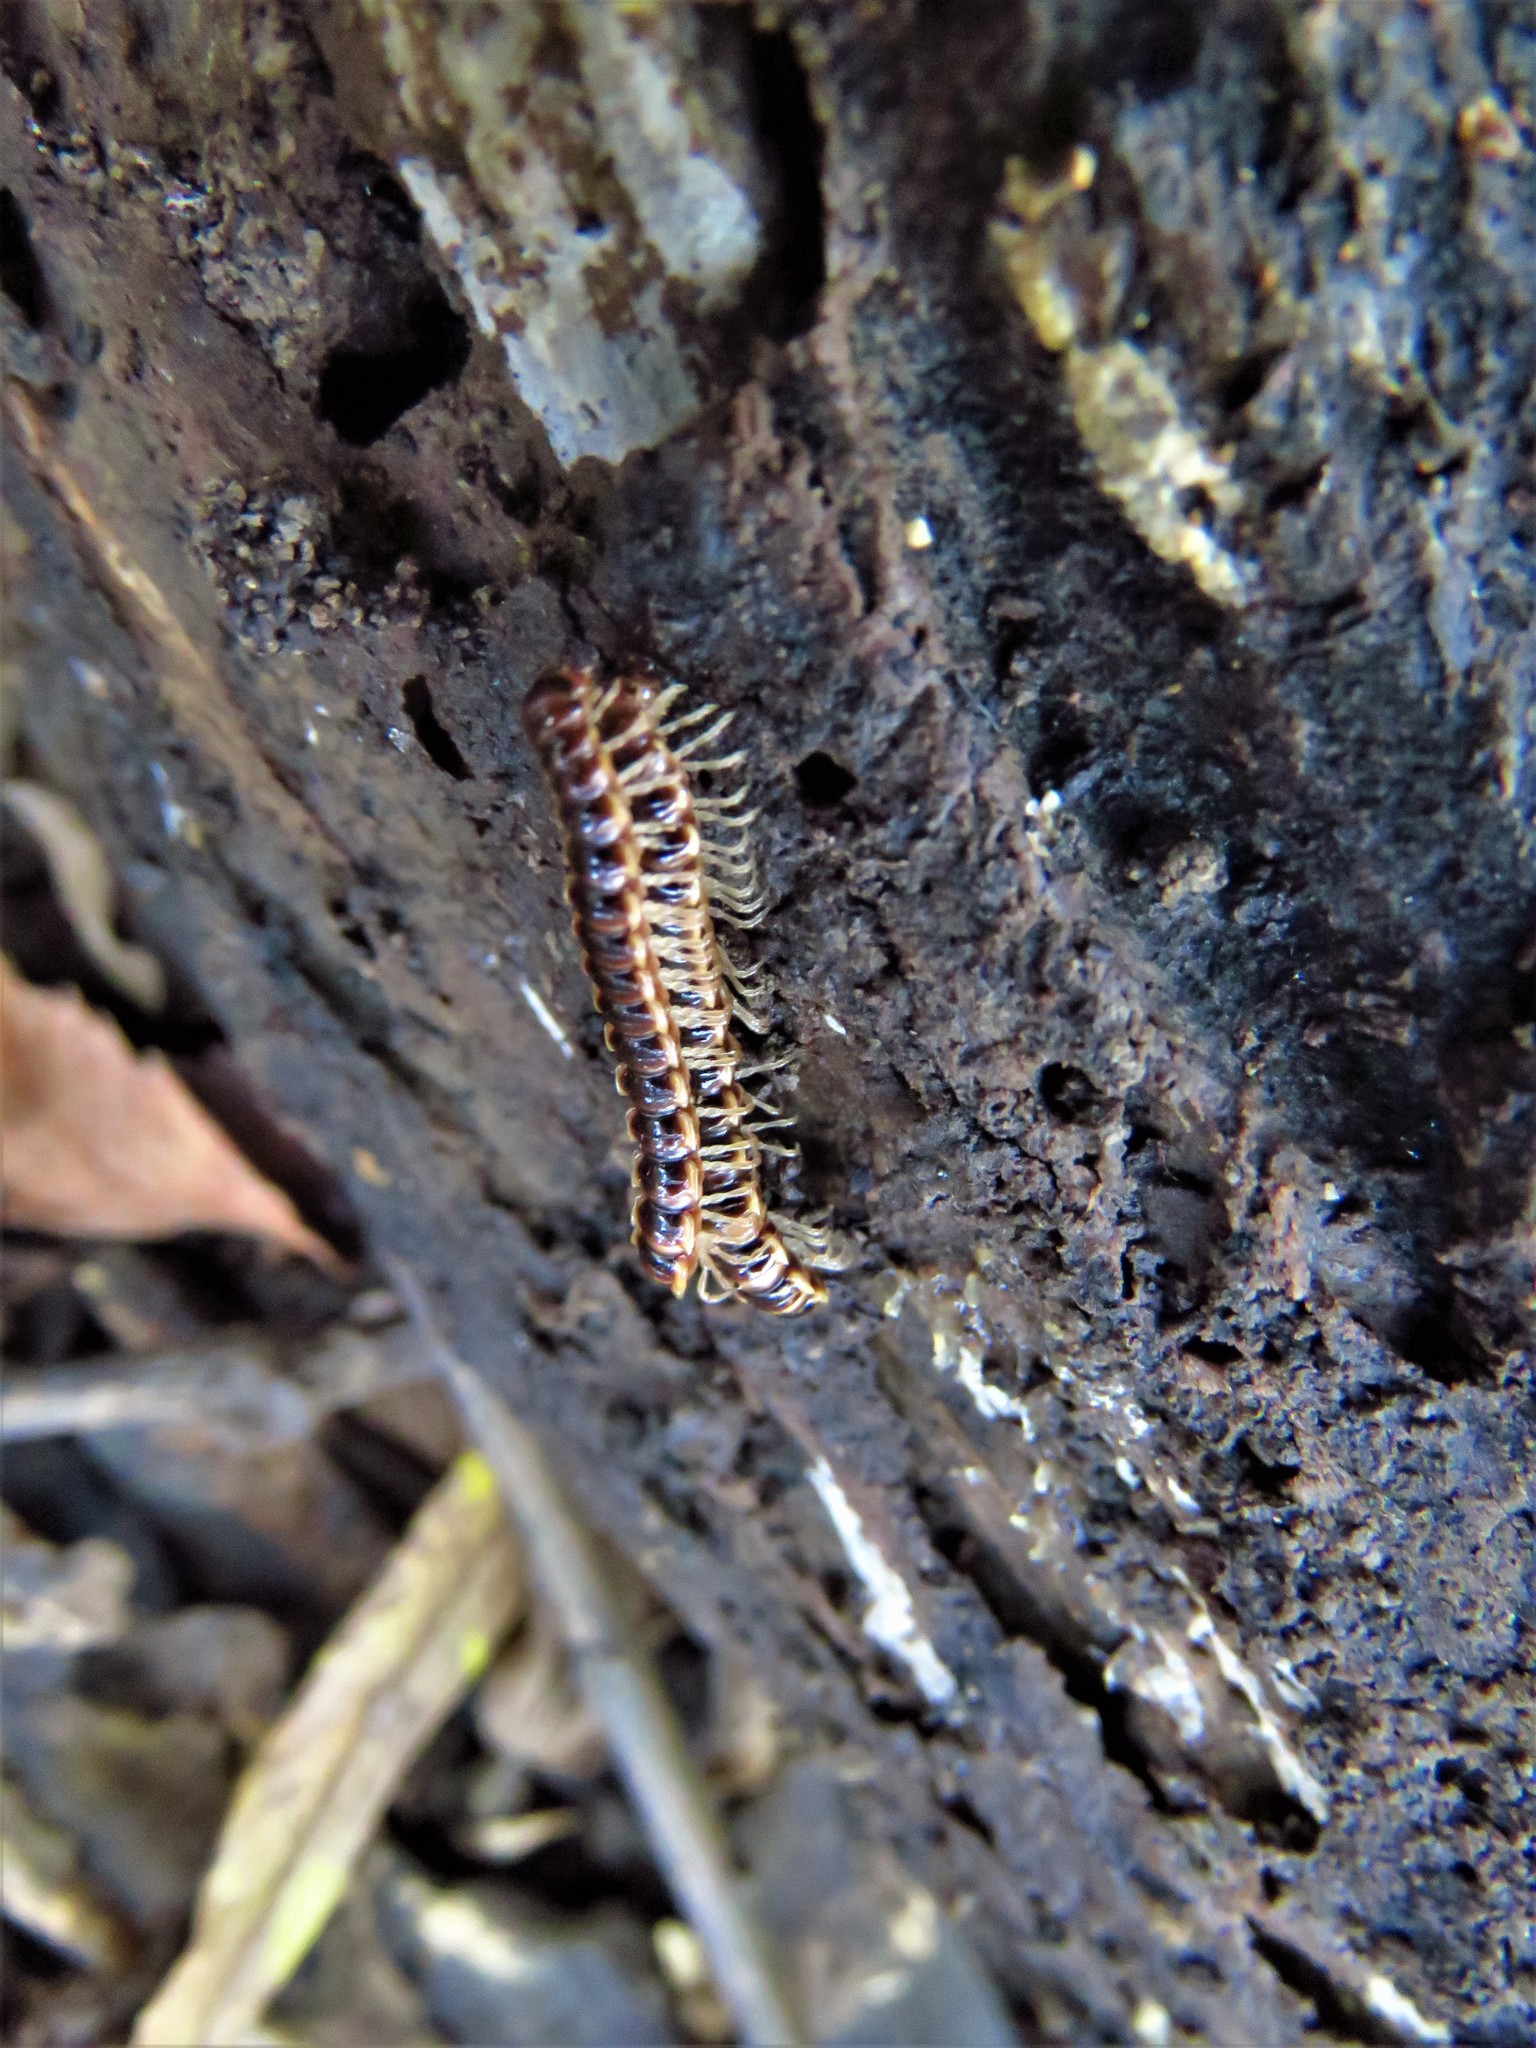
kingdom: Animalia
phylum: Arthropoda
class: Diplopoda
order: Polydesmida
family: Paradoxosomatidae
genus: Oxidus
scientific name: Oxidus gracilis
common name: Greenhouse millipede
